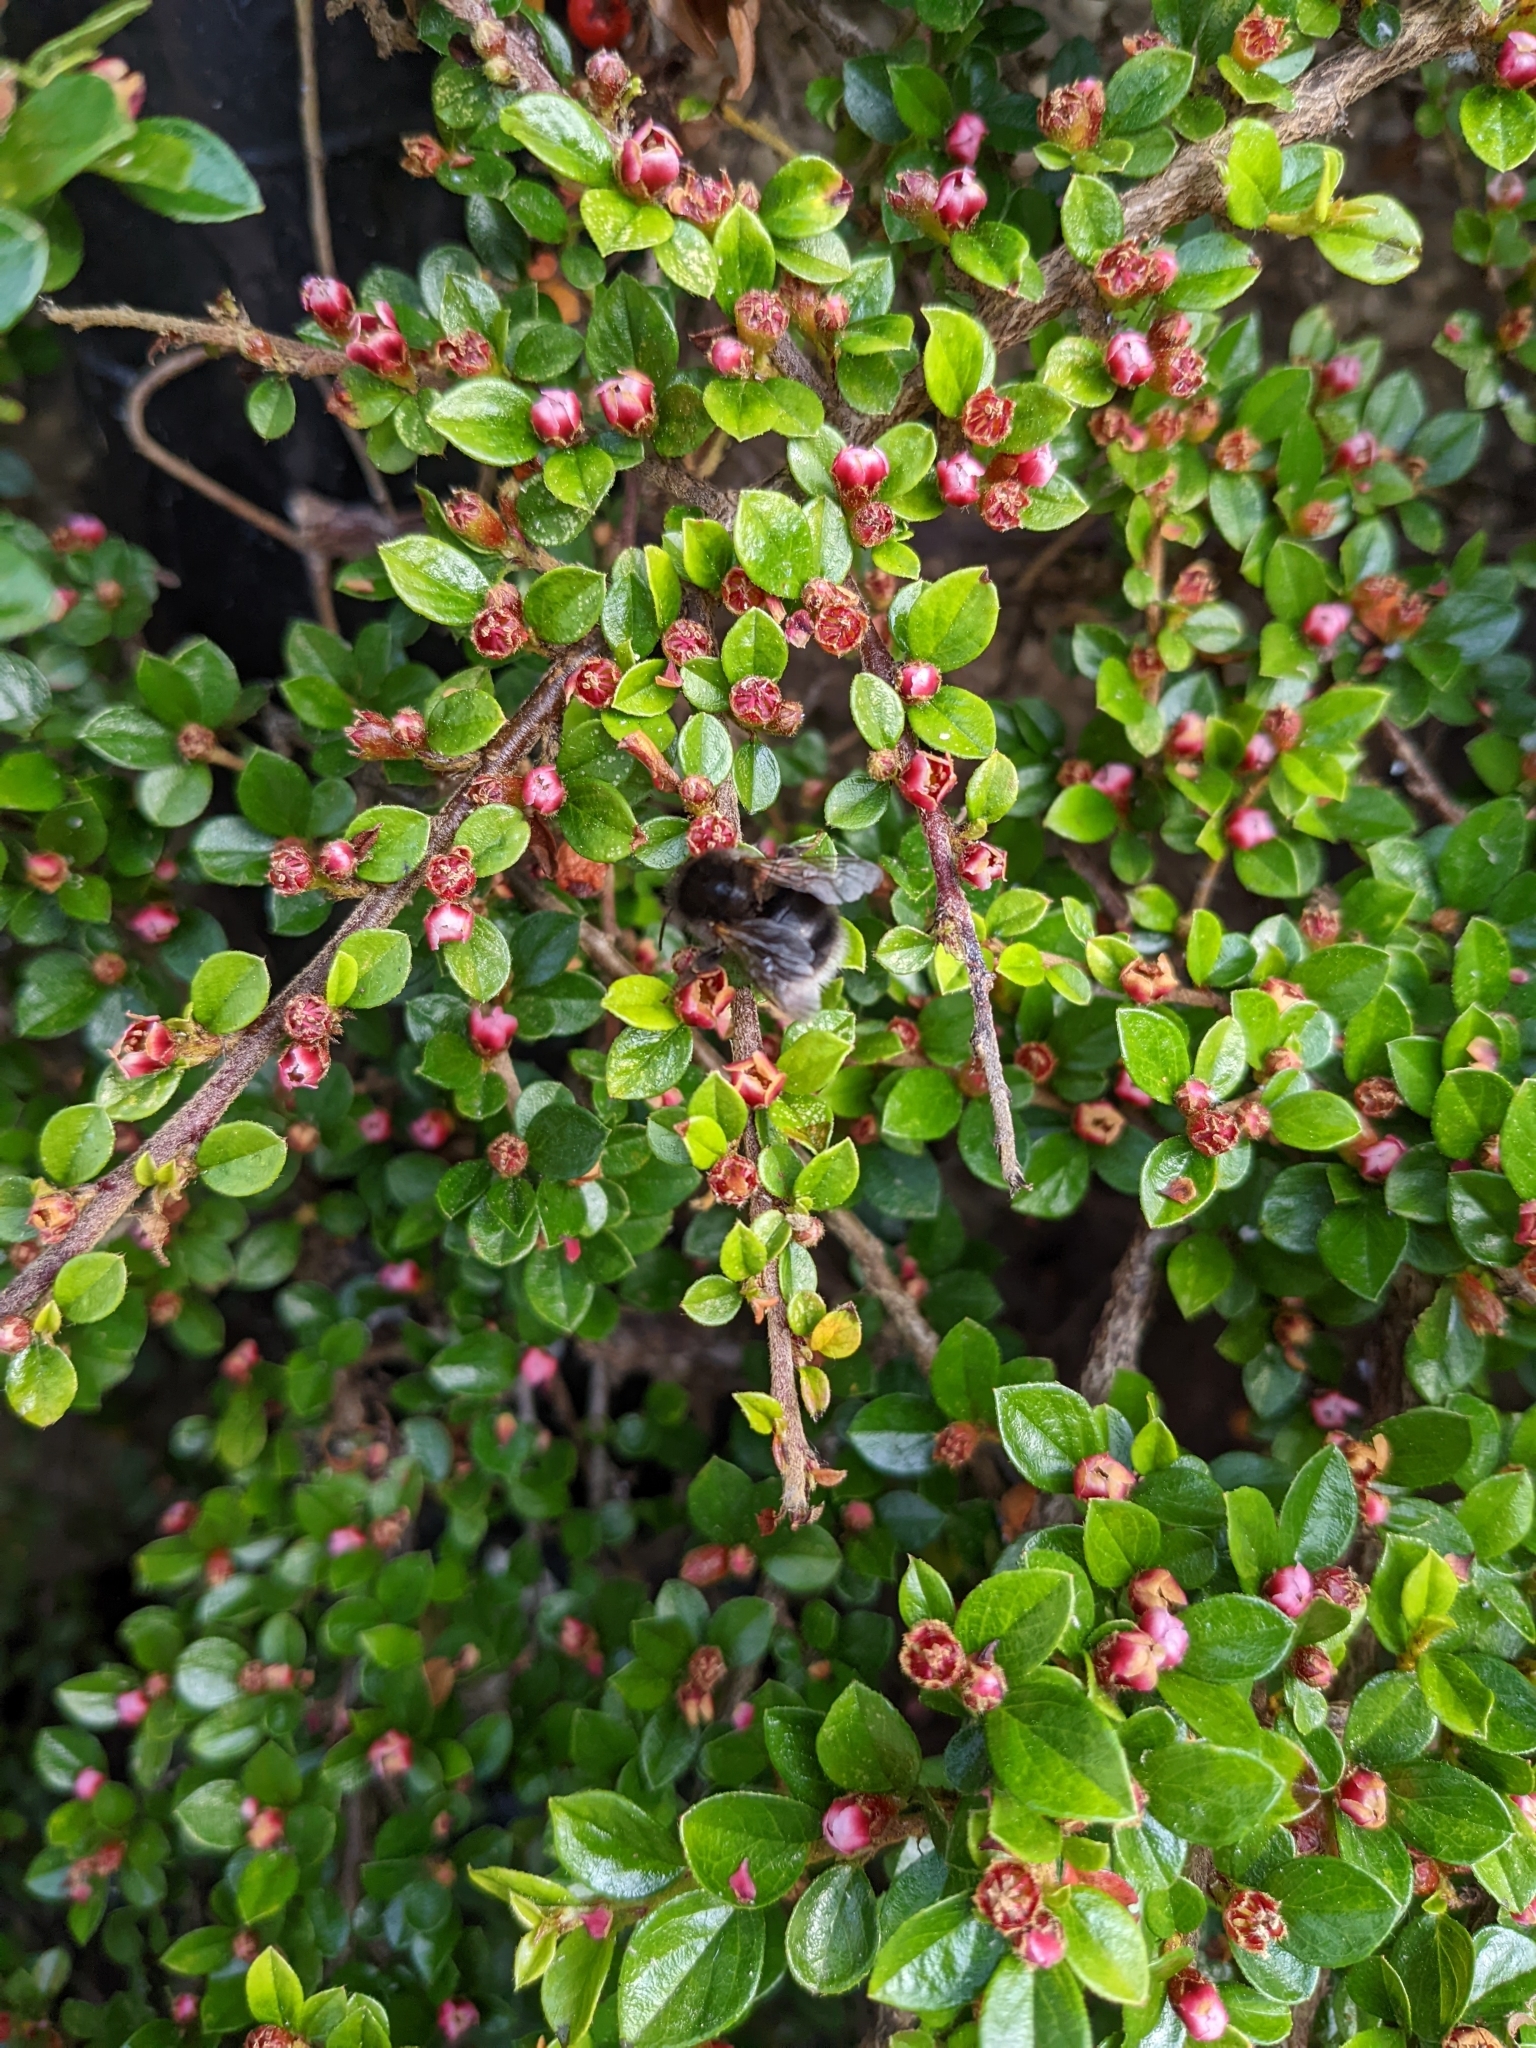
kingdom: Animalia
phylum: Arthropoda
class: Insecta
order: Hymenoptera
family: Apidae
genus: Bombus
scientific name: Bombus hypnorum
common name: New garden bumblebee
